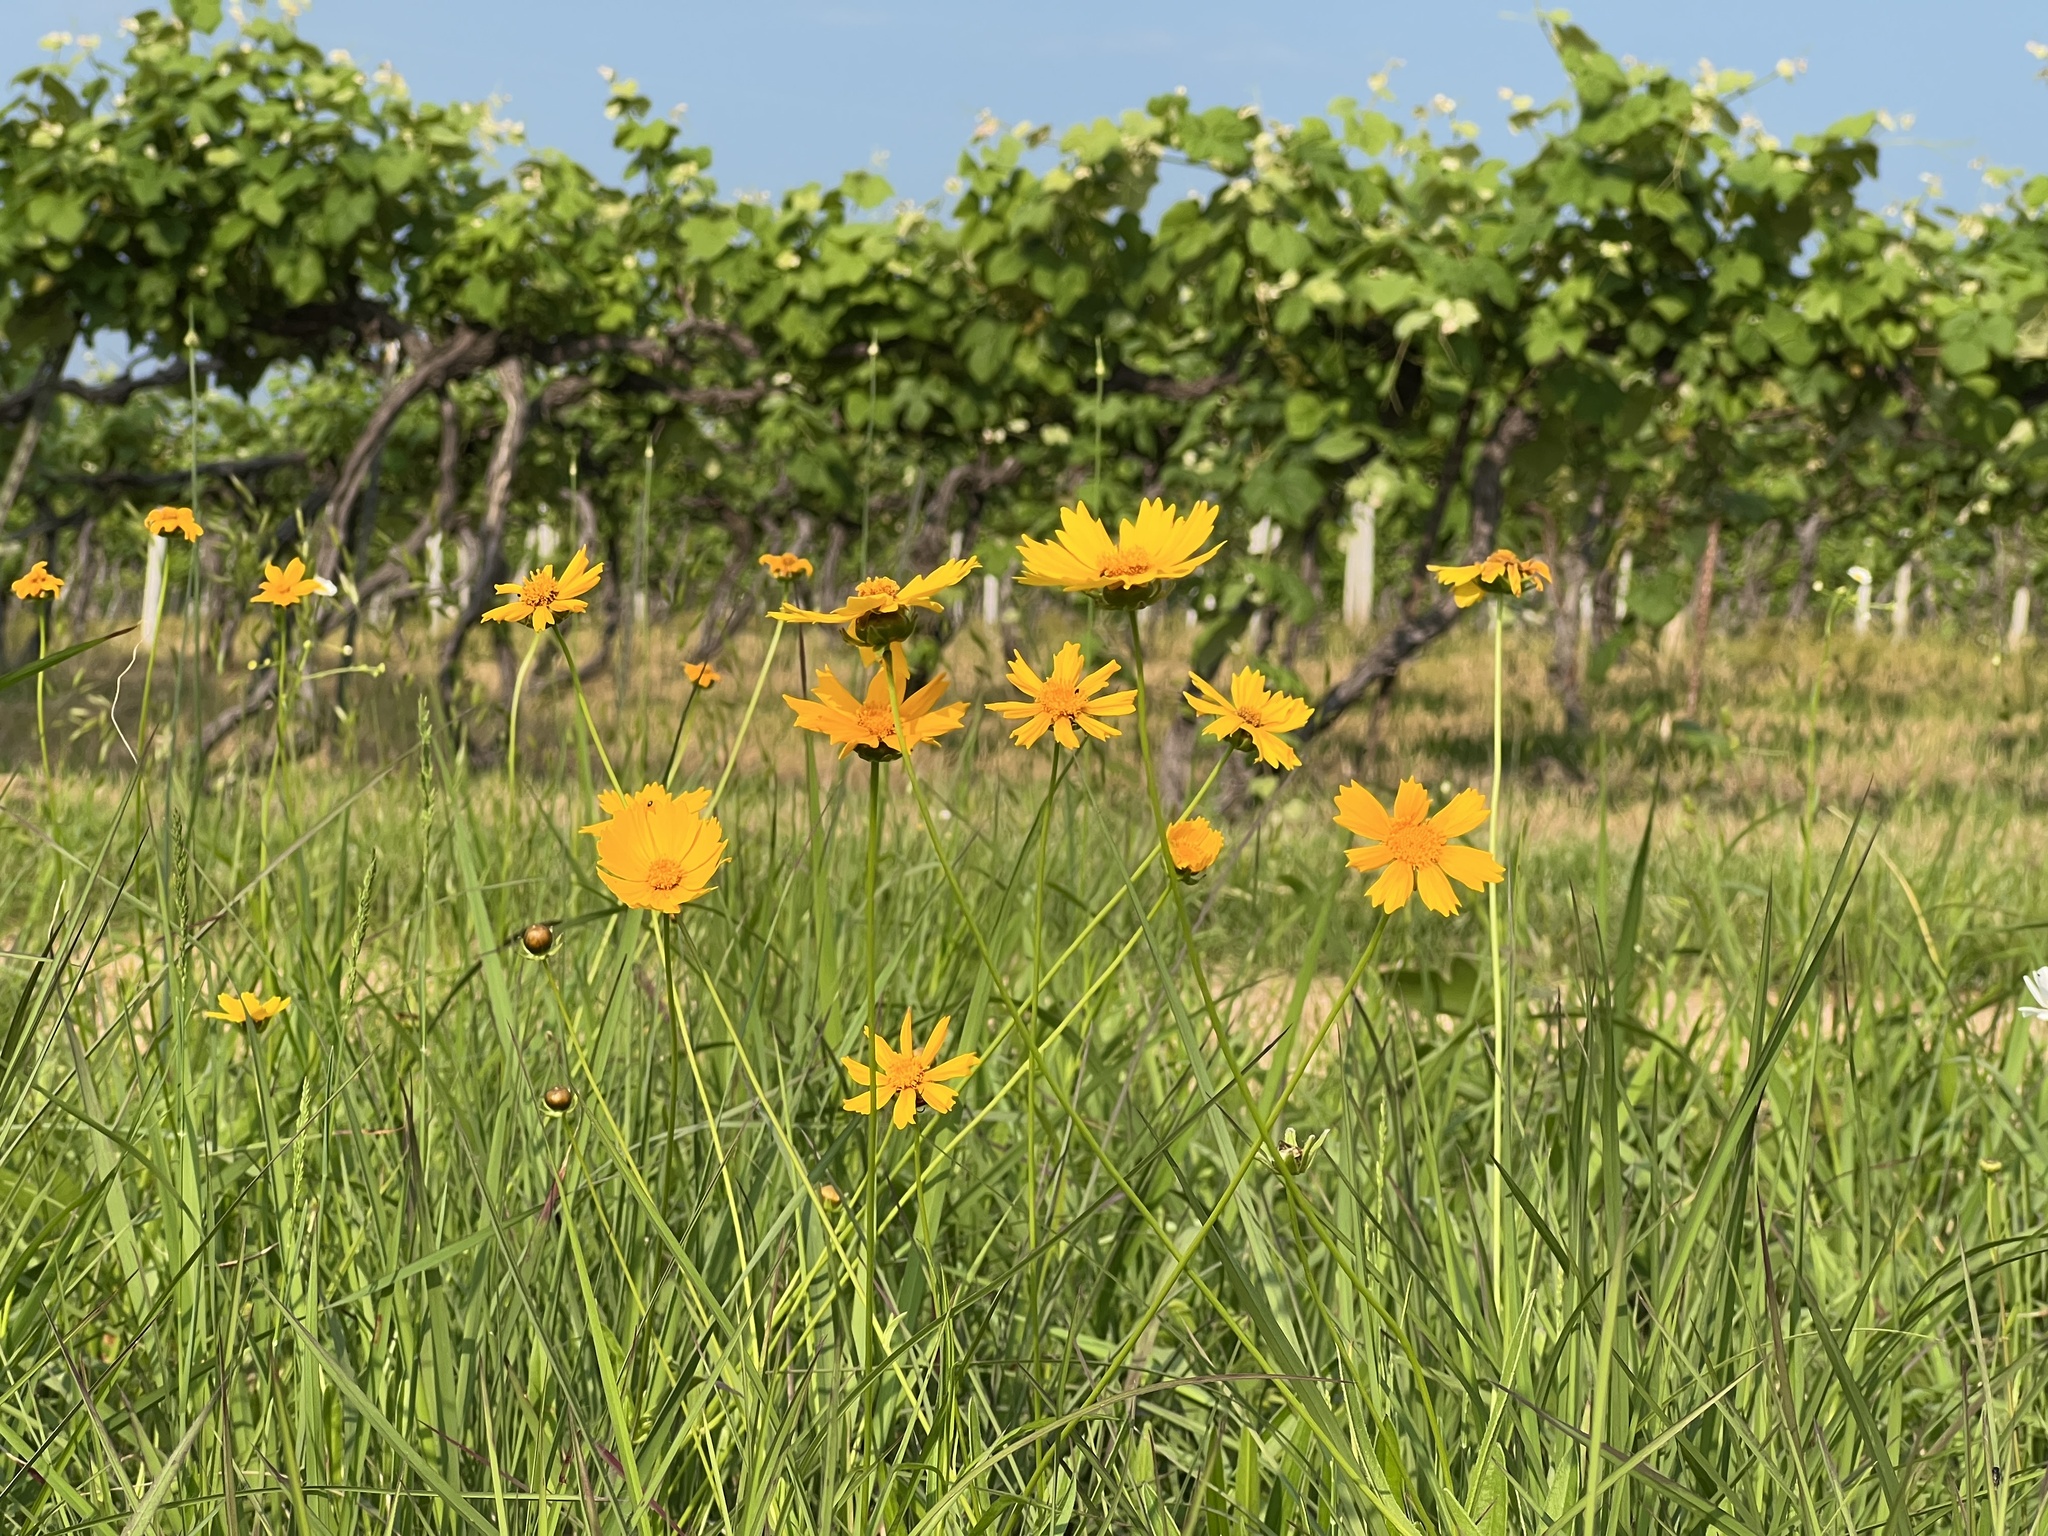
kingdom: Plantae
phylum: Tracheophyta
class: Magnoliopsida
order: Asterales
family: Asteraceae
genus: Coreopsis
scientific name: Coreopsis lanceolata
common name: Garden coreopsis
